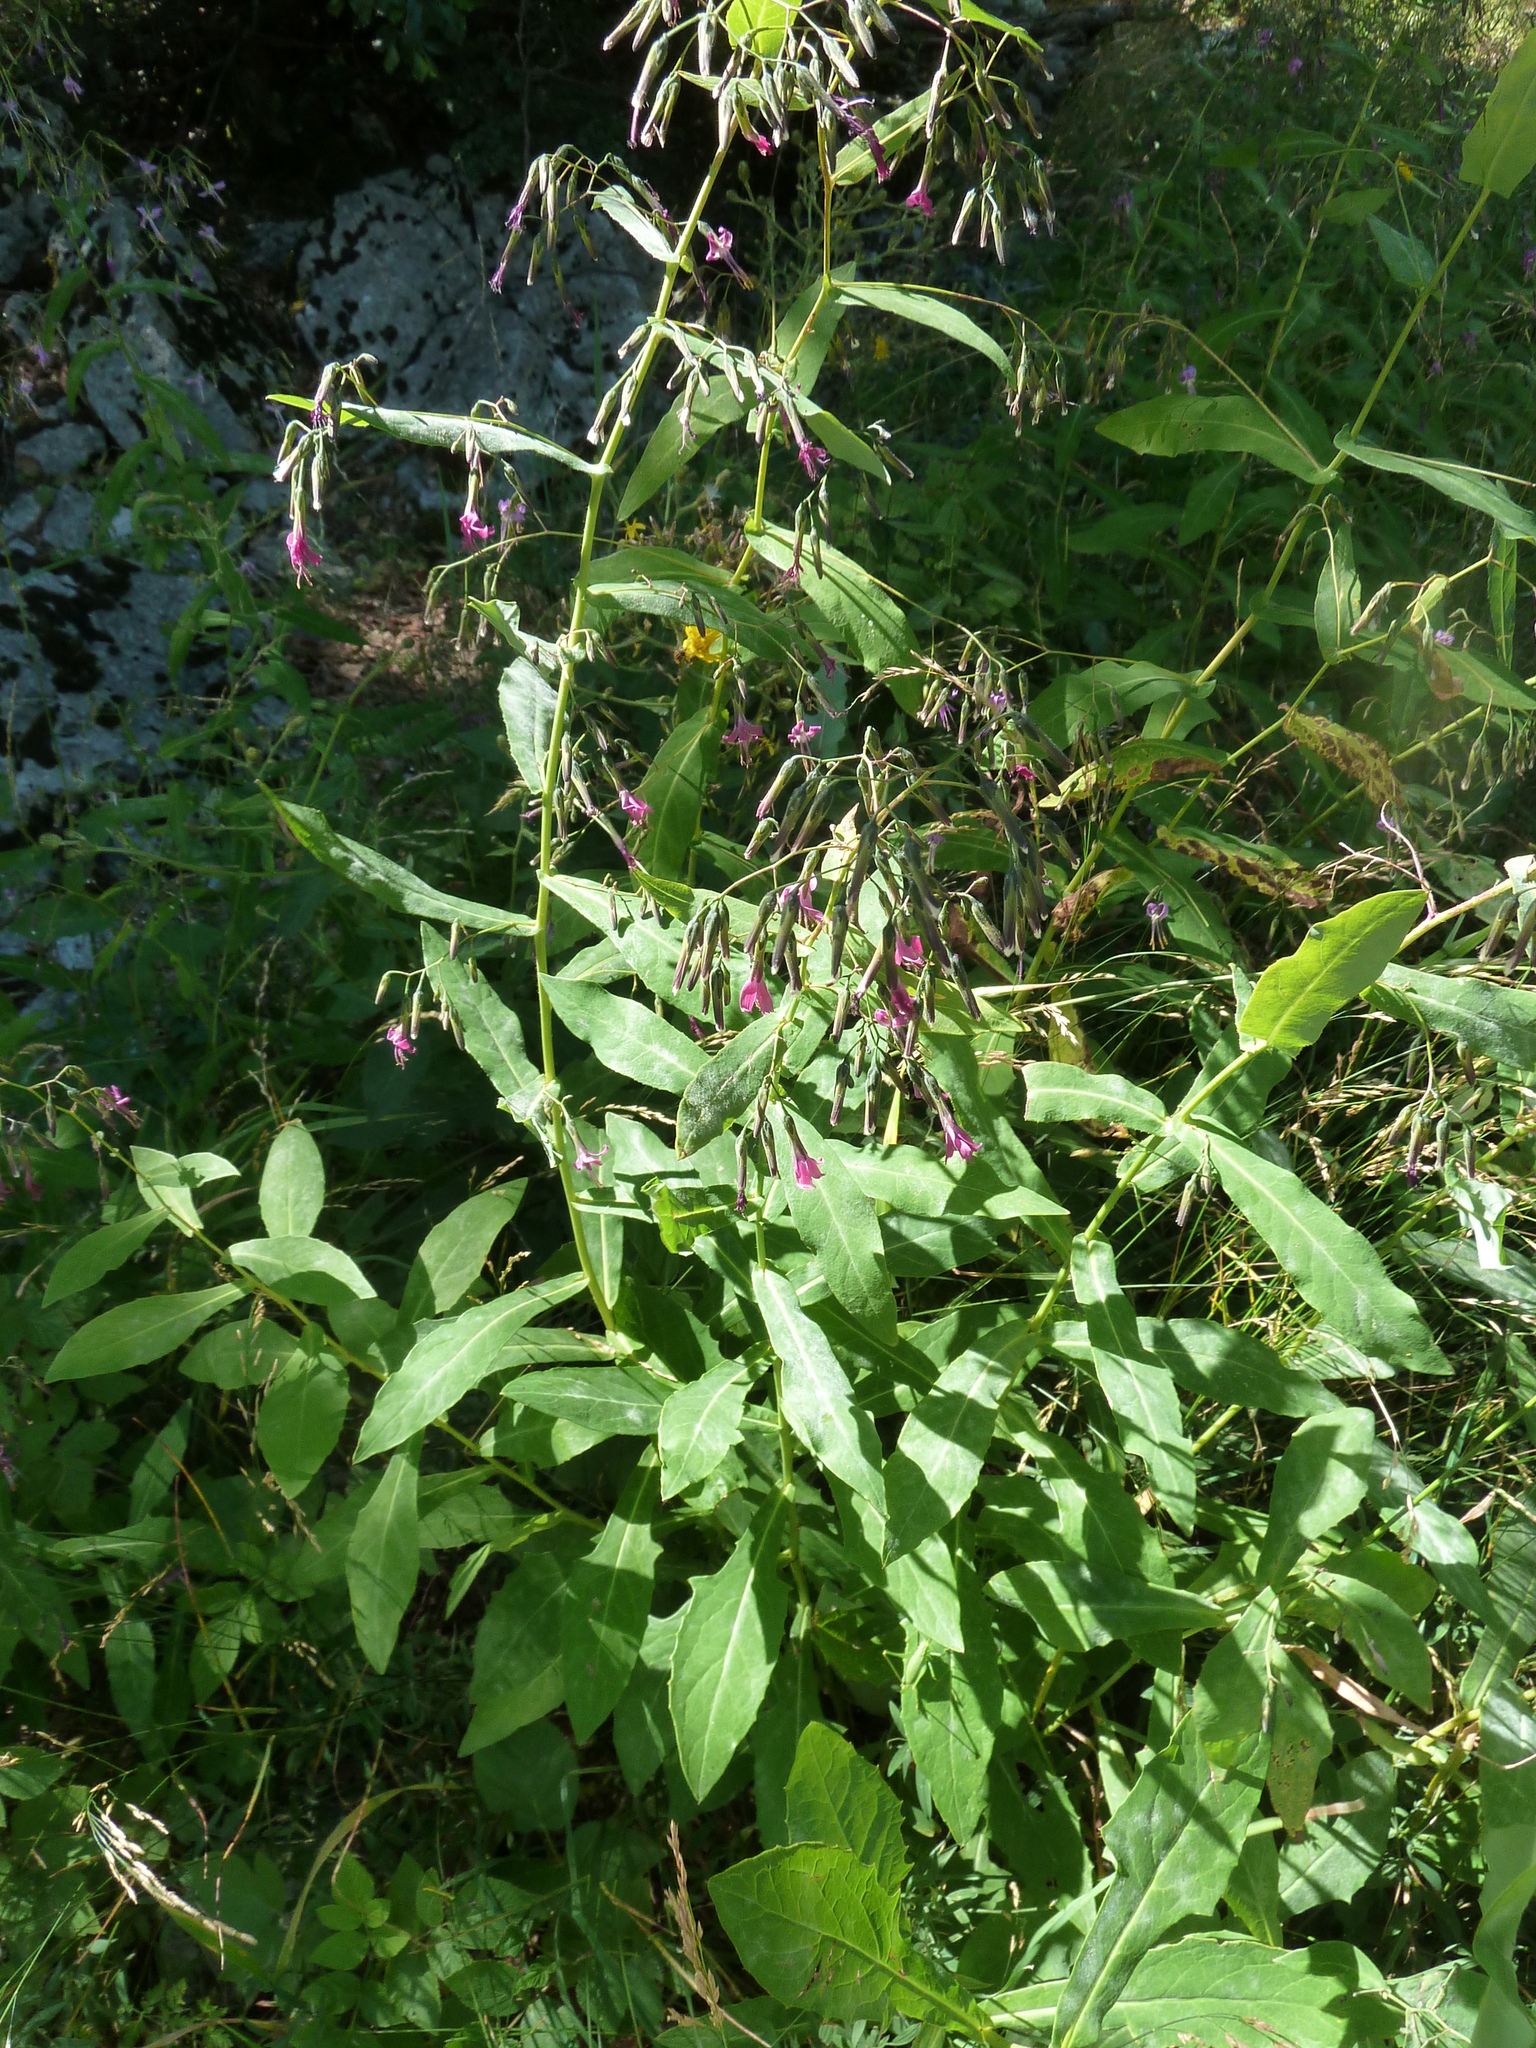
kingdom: Plantae
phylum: Tracheophyta
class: Magnoliopsida
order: Asterales
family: Asteraceae
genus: Prenanthes
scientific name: Prenanthes purpurea
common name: Purple lettuce
